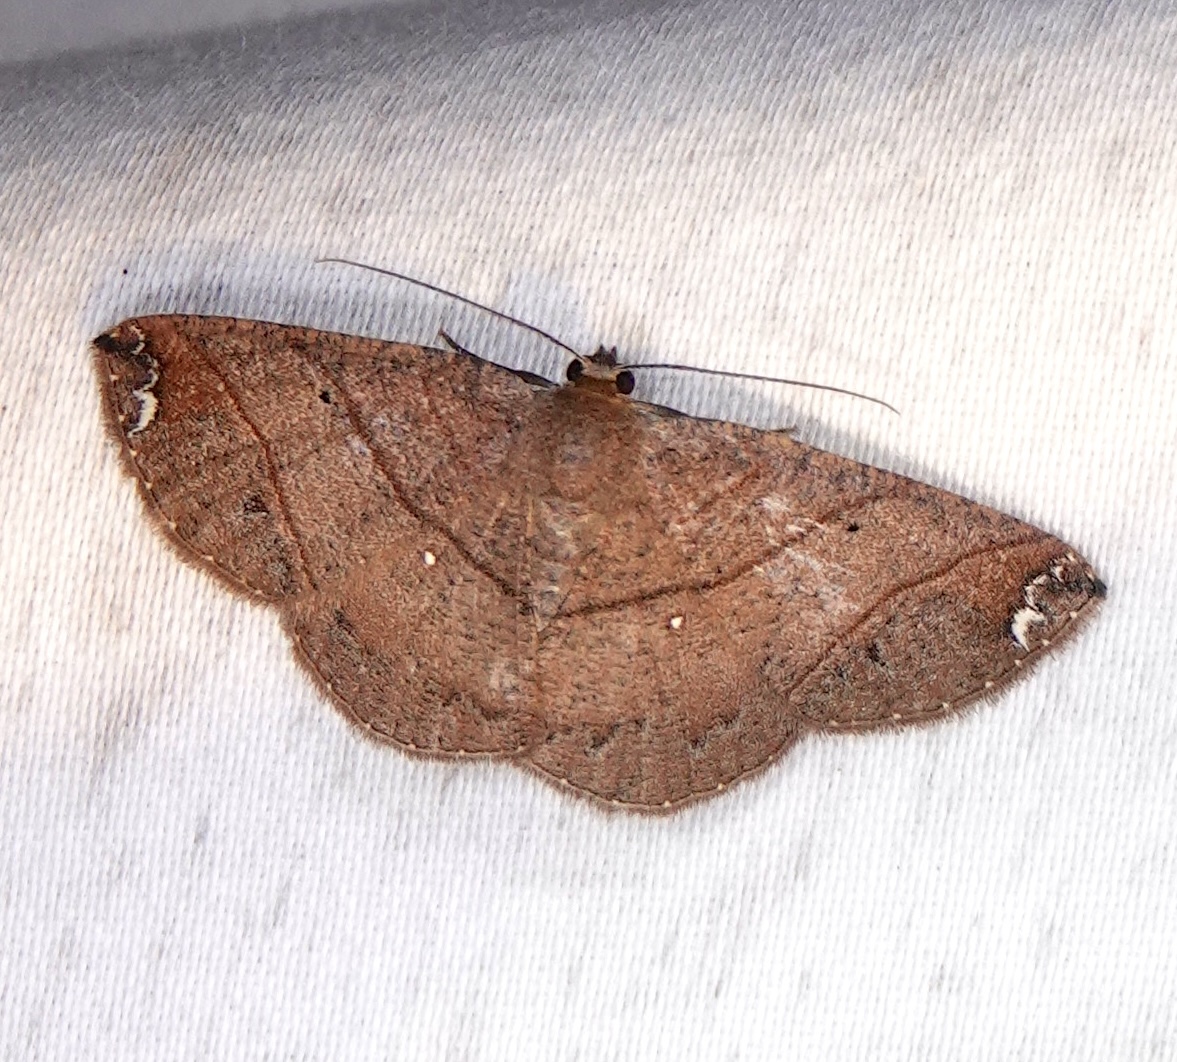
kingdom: Animalia
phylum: Arthropoda
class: Insecta
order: Lepidoptera
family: Geometridae
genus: Thysanopyga
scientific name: Thysanopyga carfinia
